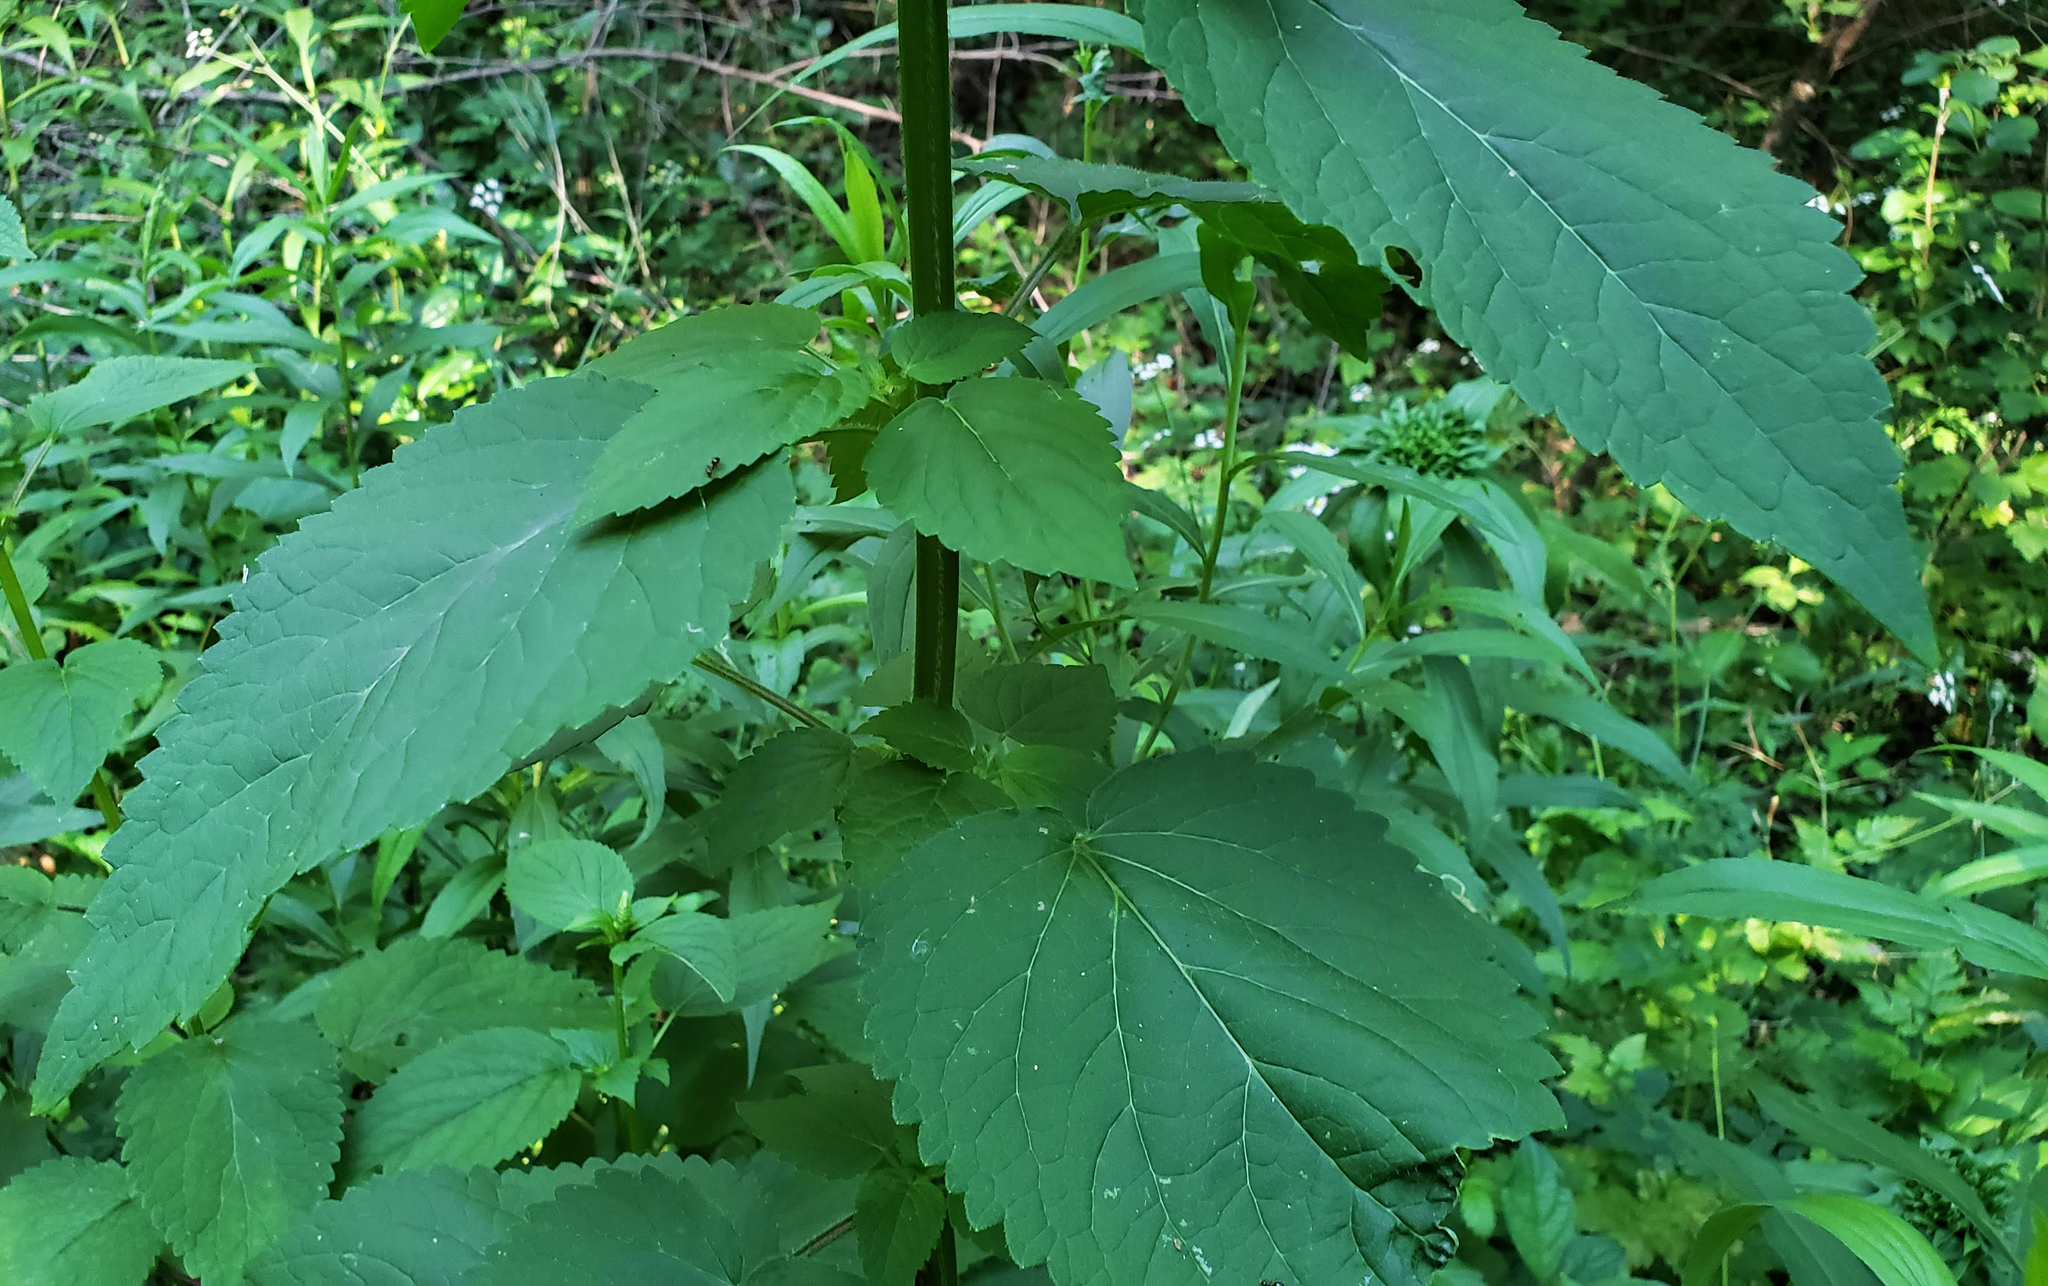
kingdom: Plantae
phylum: Tracheophyta
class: Magnoliopsida
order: Lamiales
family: Scrophulariaceae
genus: Scrophularia
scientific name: Scrophularia marilandica
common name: Eastern figwort
